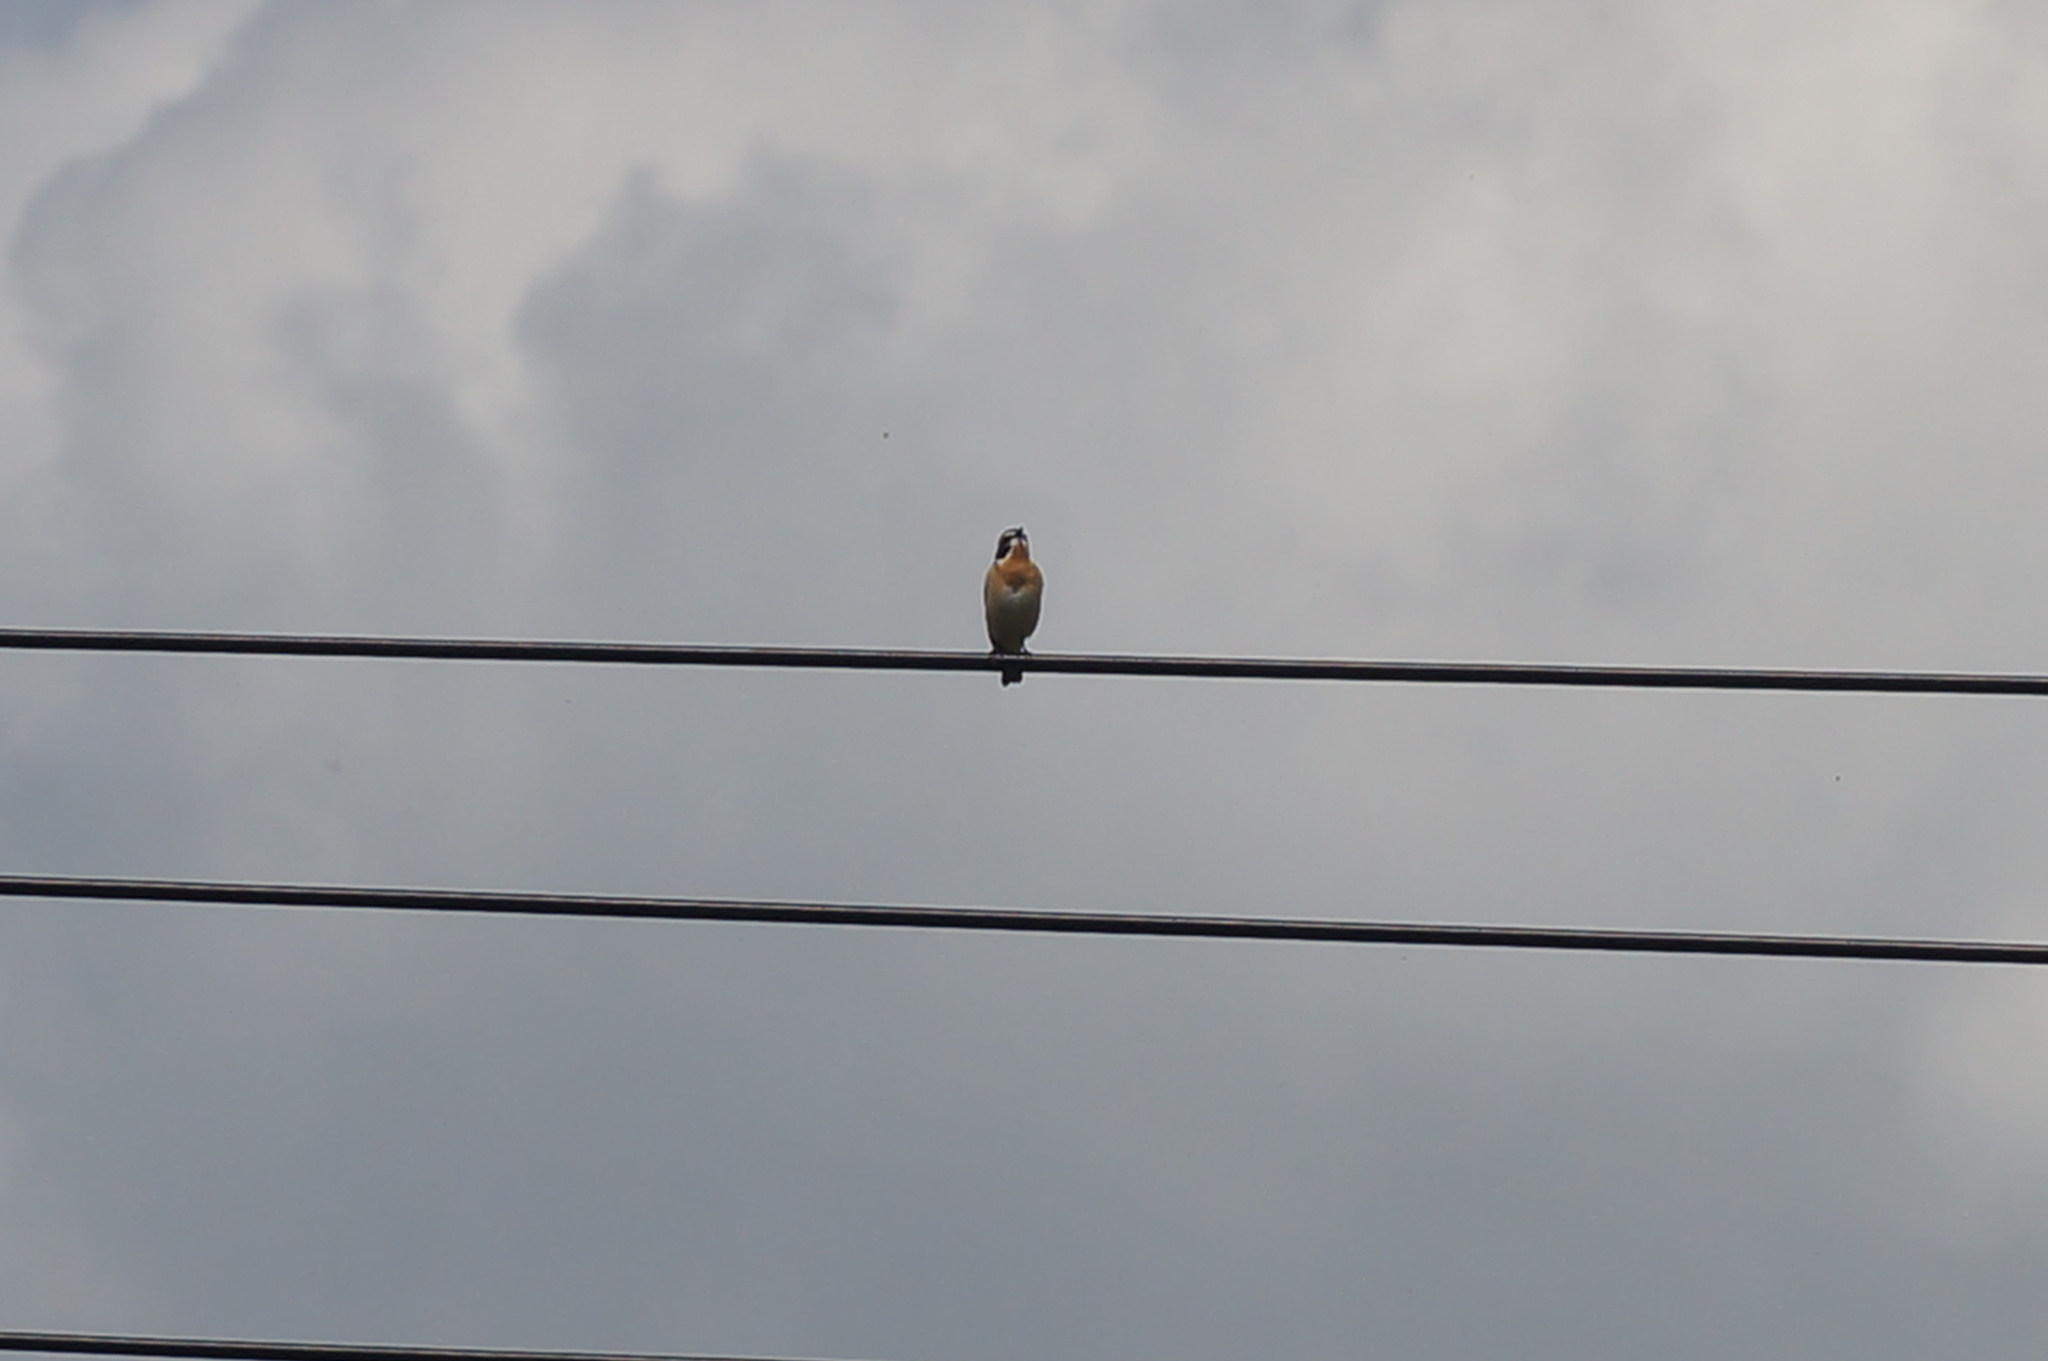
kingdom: Animalia
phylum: Chordata
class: Aves
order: Passeriformes
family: Muscicapidae
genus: Saxicola
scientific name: Saxicola rubetra
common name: Whinchat
